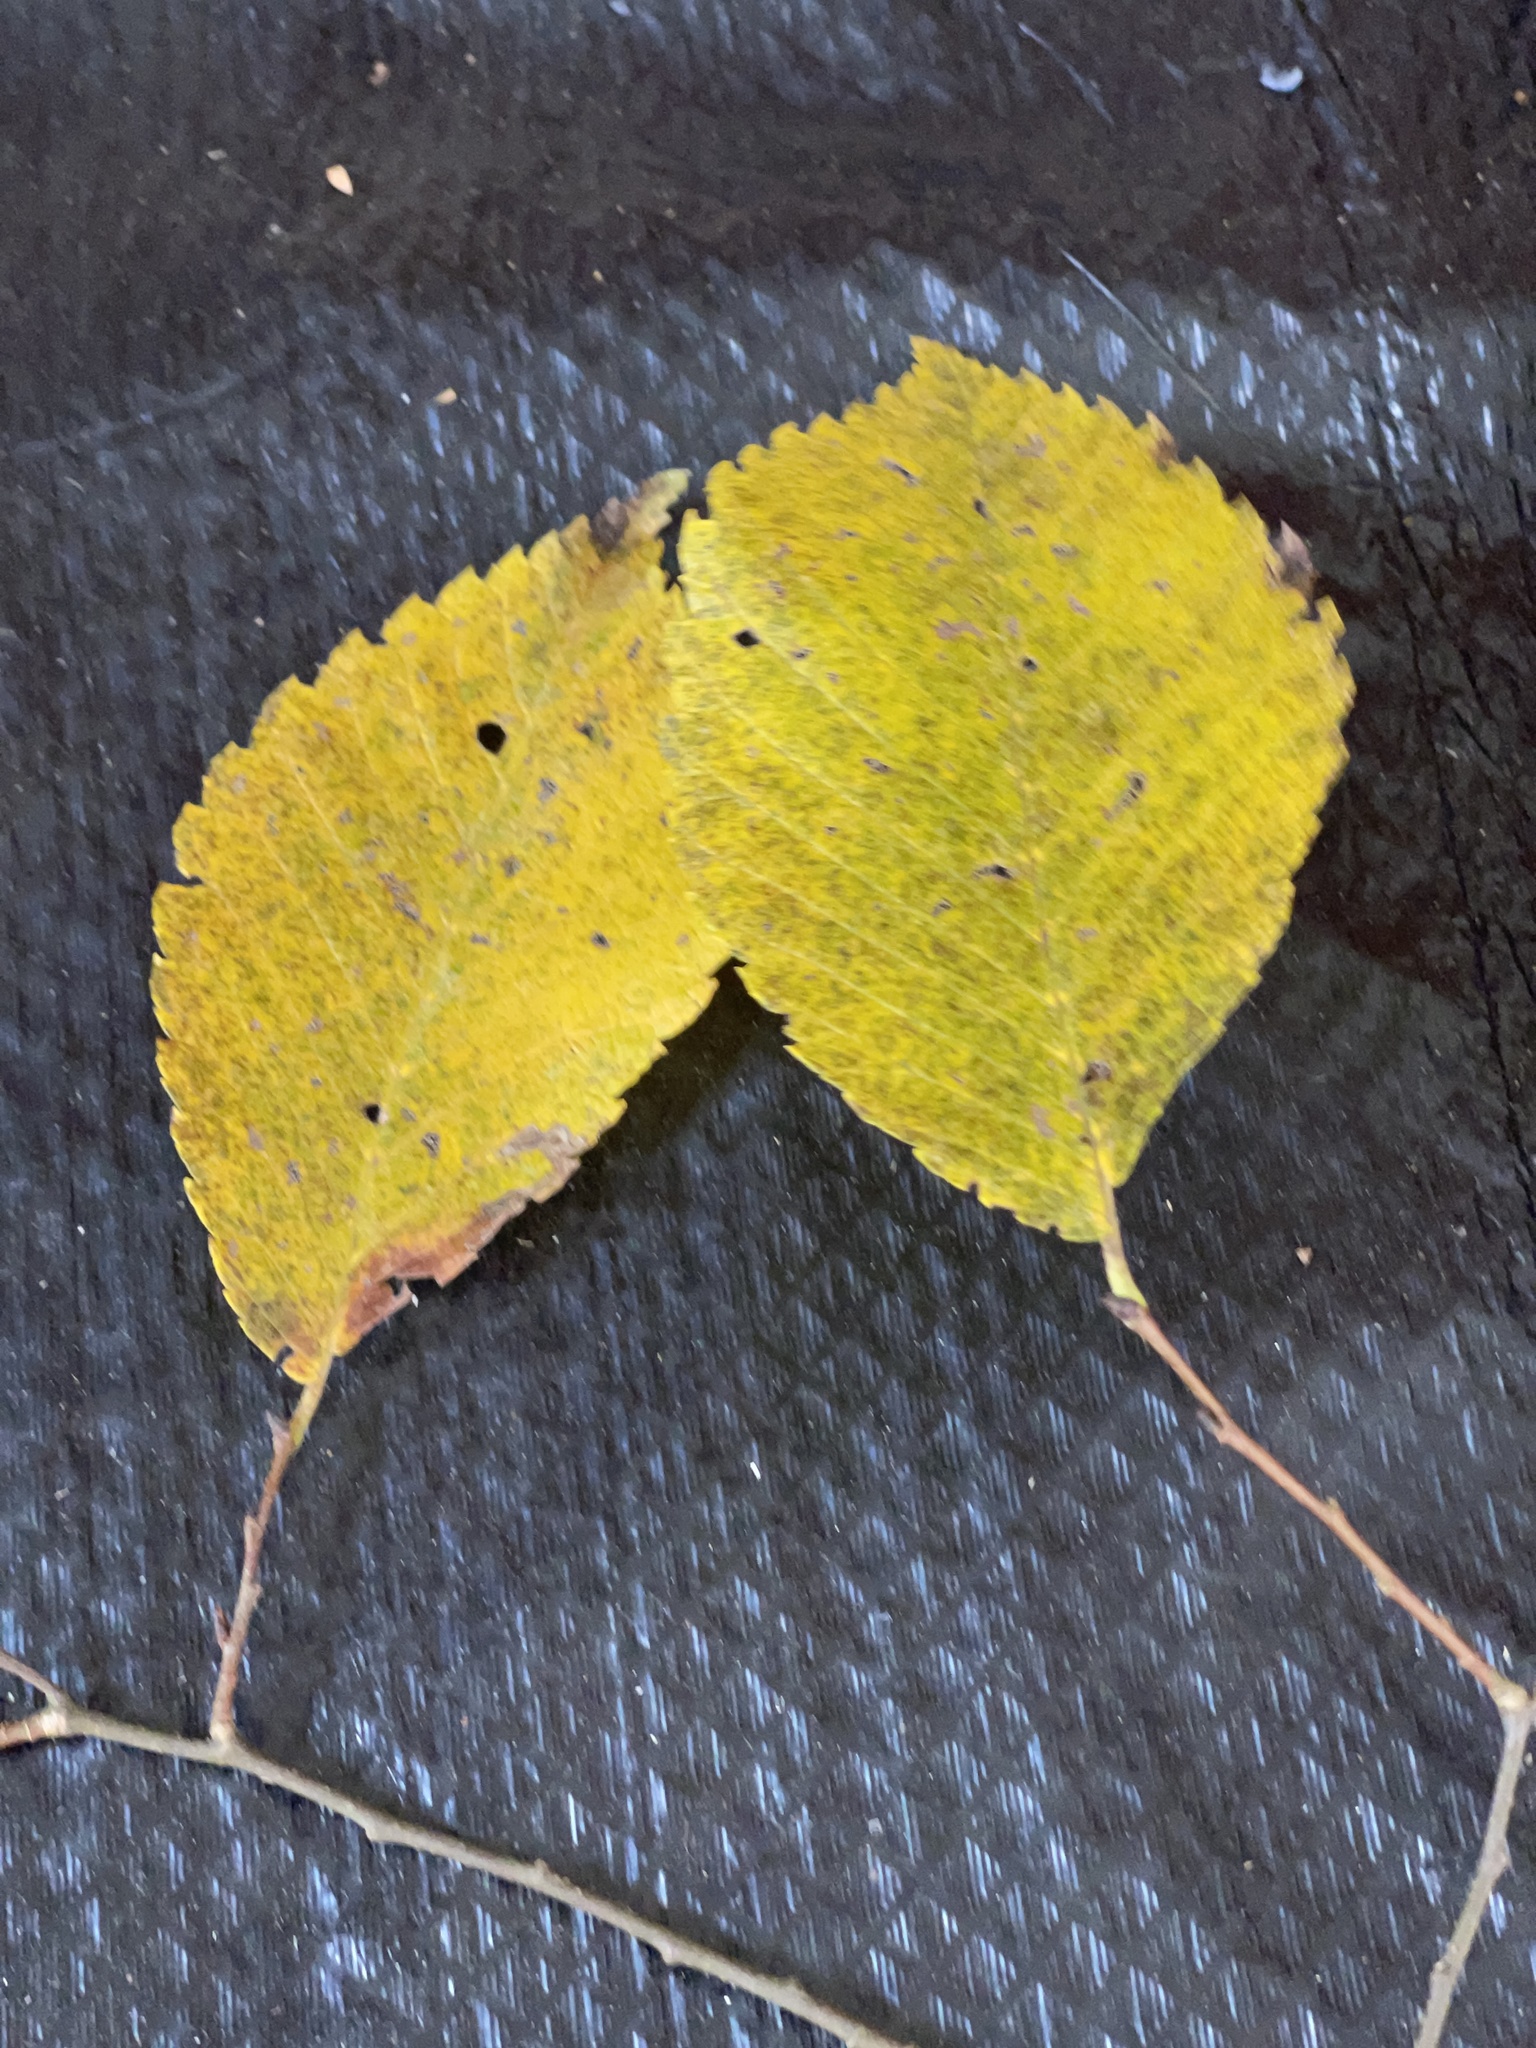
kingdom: Plantae
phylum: Tracheophyta
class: Magnoliopsida
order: Rosales
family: Ulmaceae
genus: Ulmus
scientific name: Ulmus americana
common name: American elm
